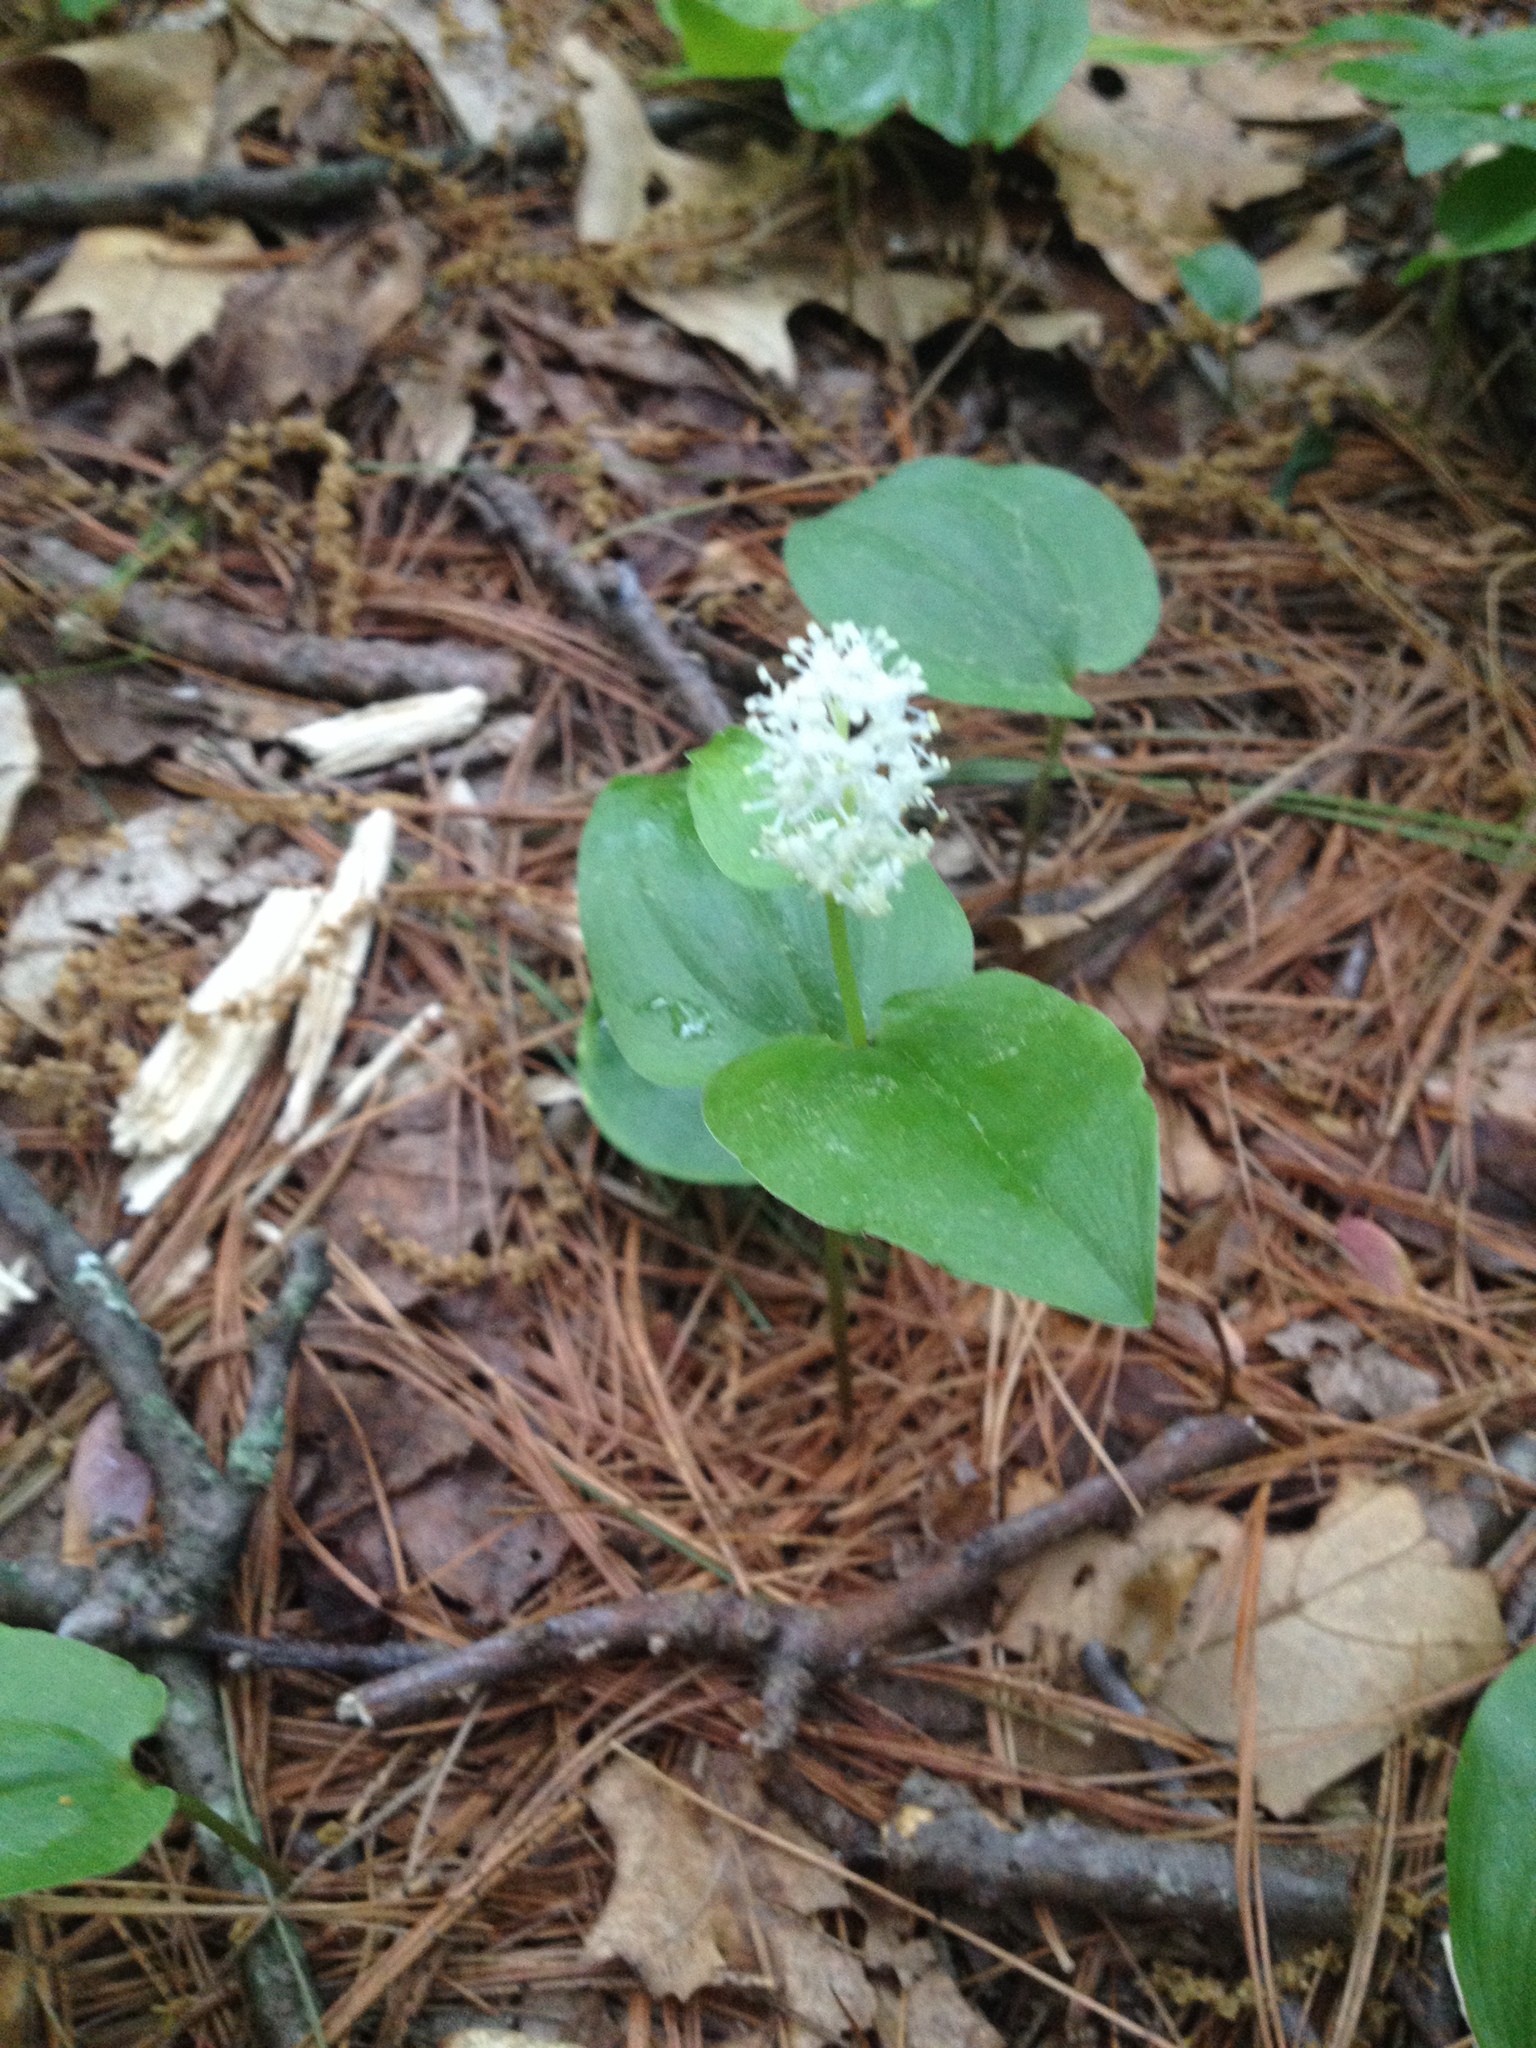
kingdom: Plantae
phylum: Tracheophyta
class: Liliopsida
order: Asparagales
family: Asparagaceae
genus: Maianthemum
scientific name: Maianthemum canadense
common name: False lily-of-the-valley
